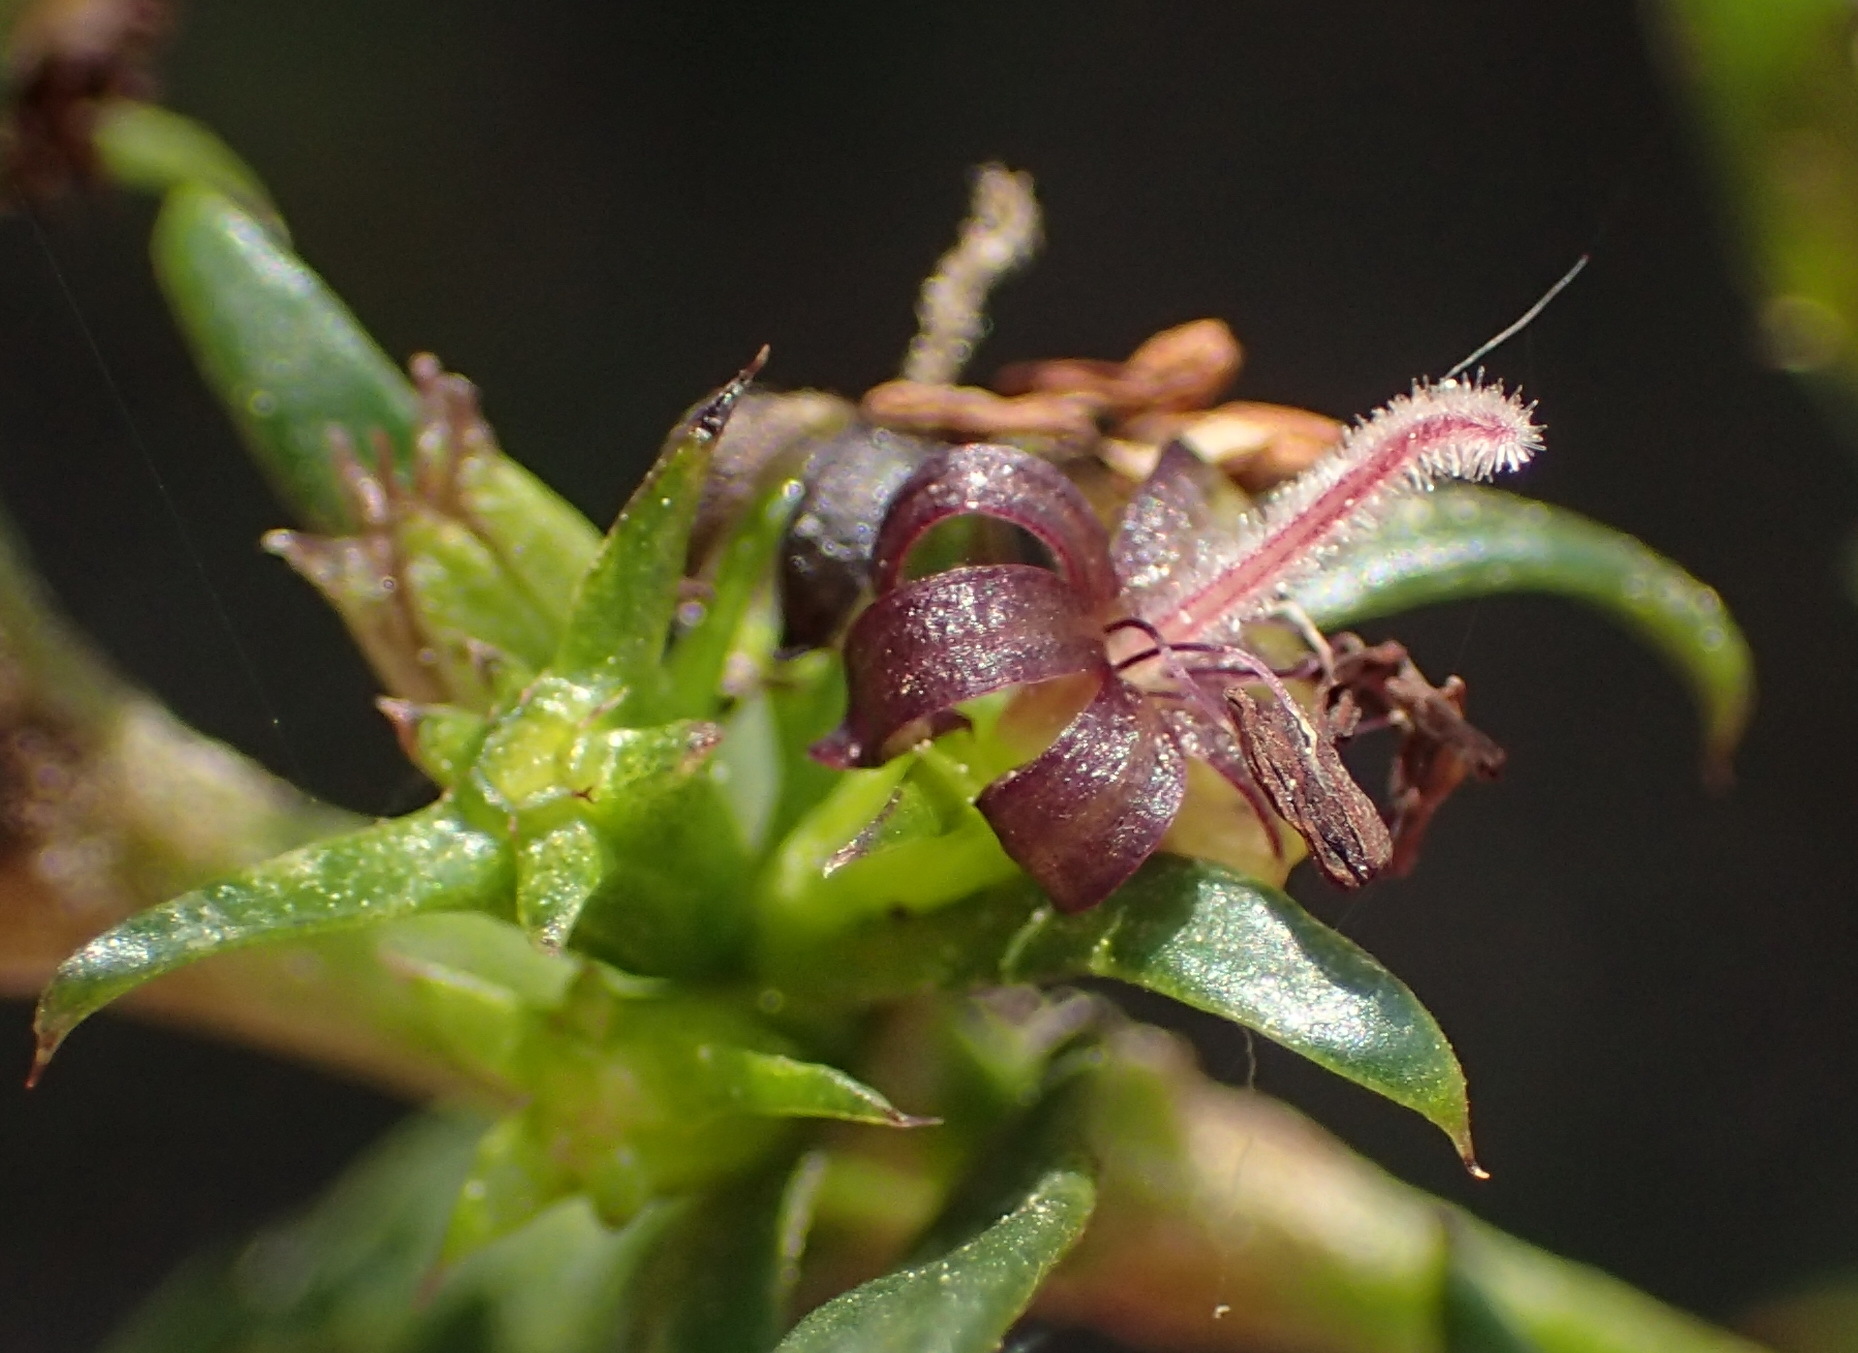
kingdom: Plantae
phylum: Tracheophyta
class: Magnoliopsida
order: Gentianales
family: Rubiaceae
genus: Carpacoce
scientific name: Carpacoce spermacocea
